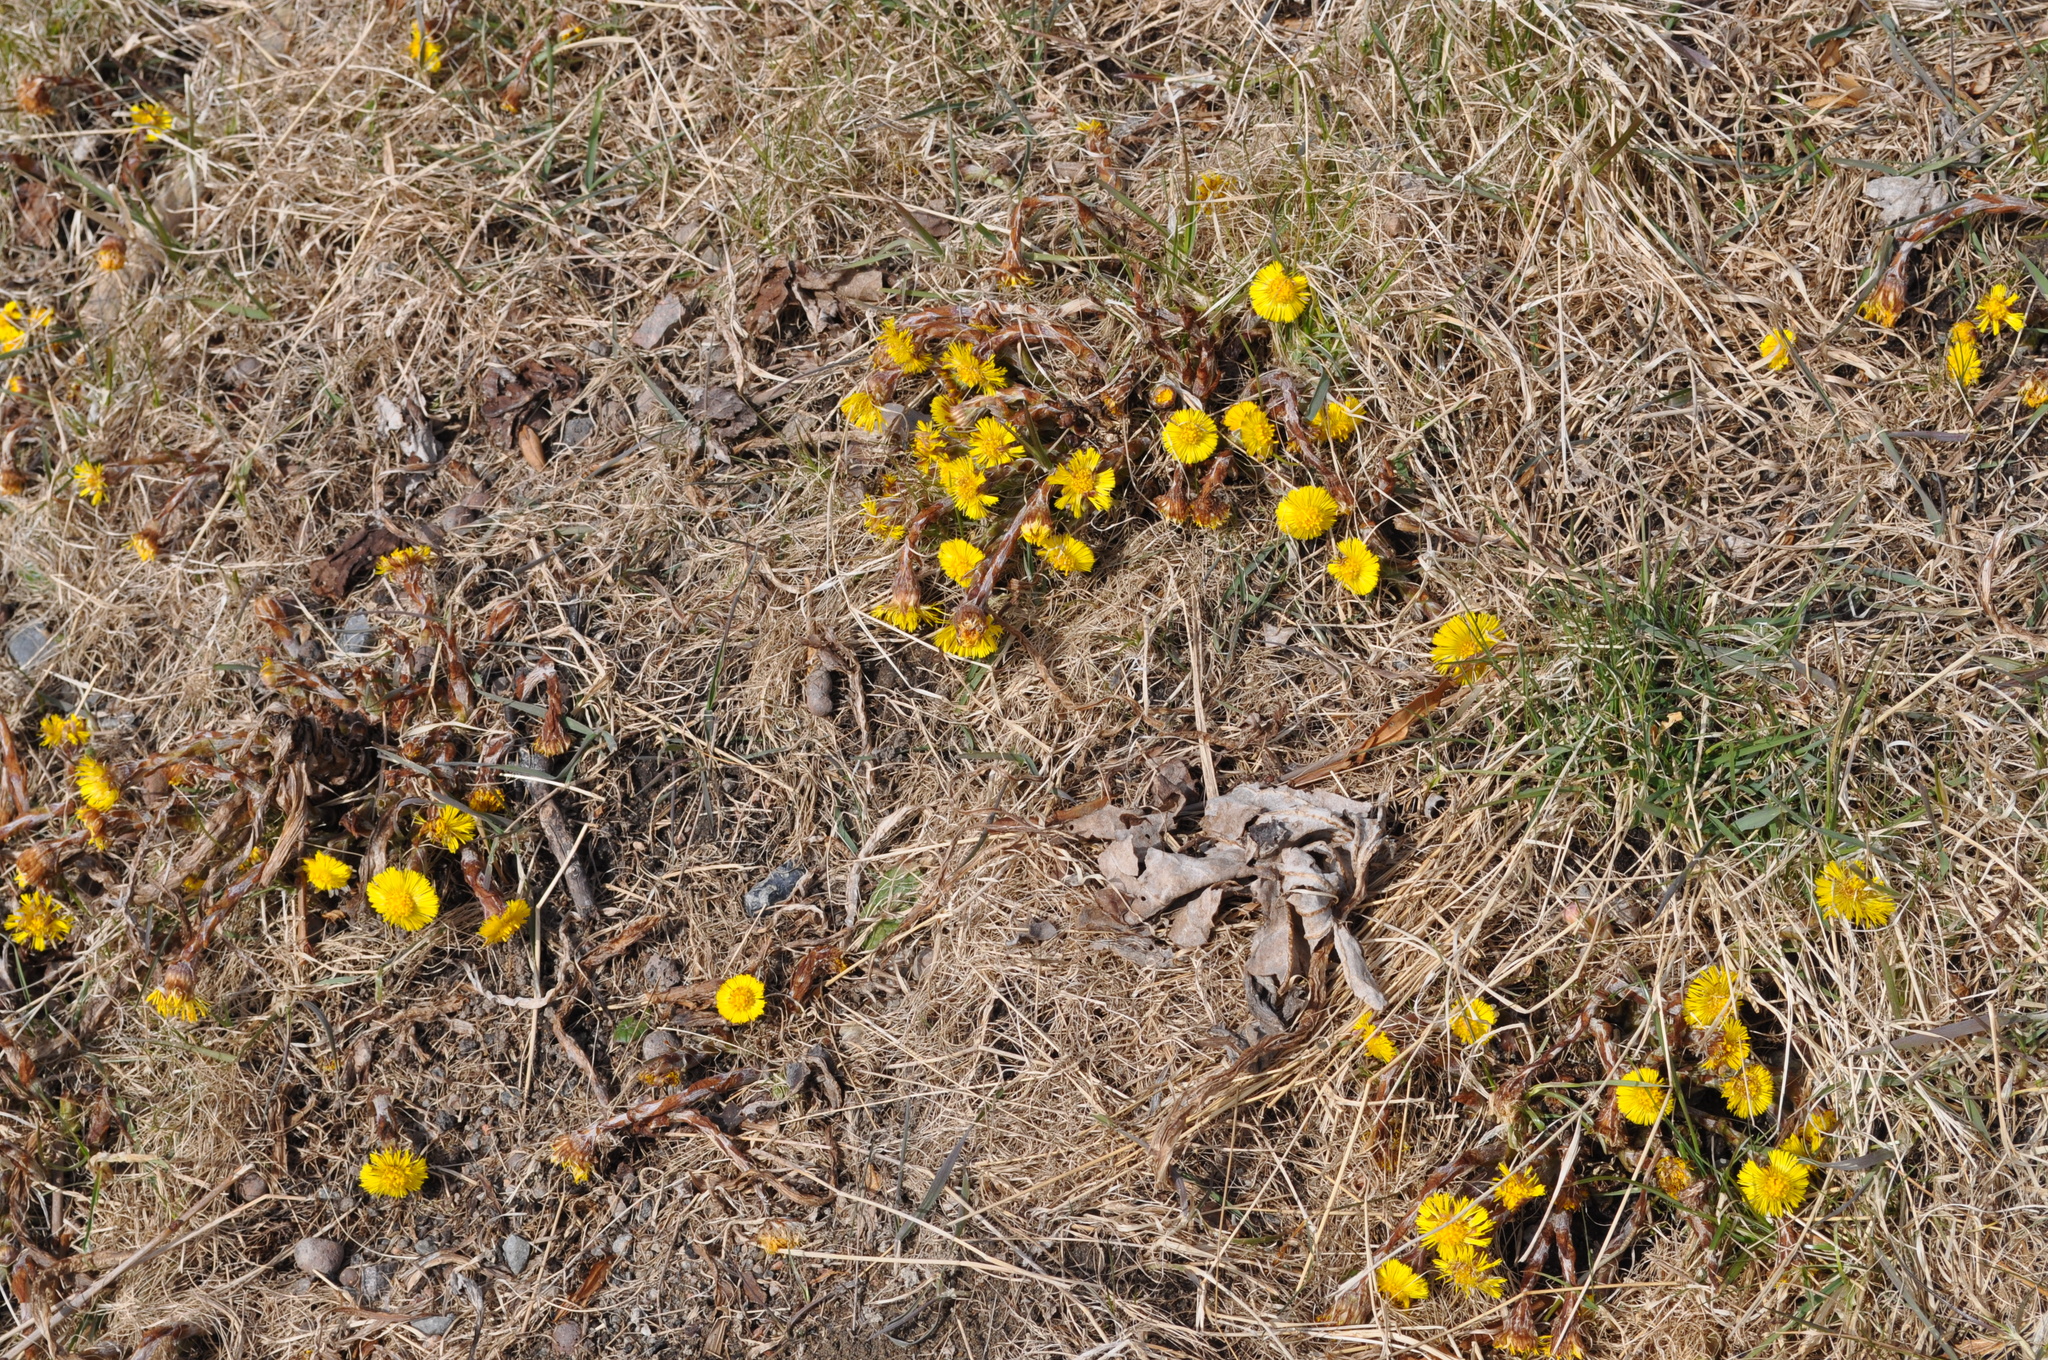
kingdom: Plantae
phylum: Tracheophyta
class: Magnoliopsida
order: Asterales
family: Asteraceae
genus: Tussilago
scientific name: Tussilago farfara
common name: Coltsfoot
